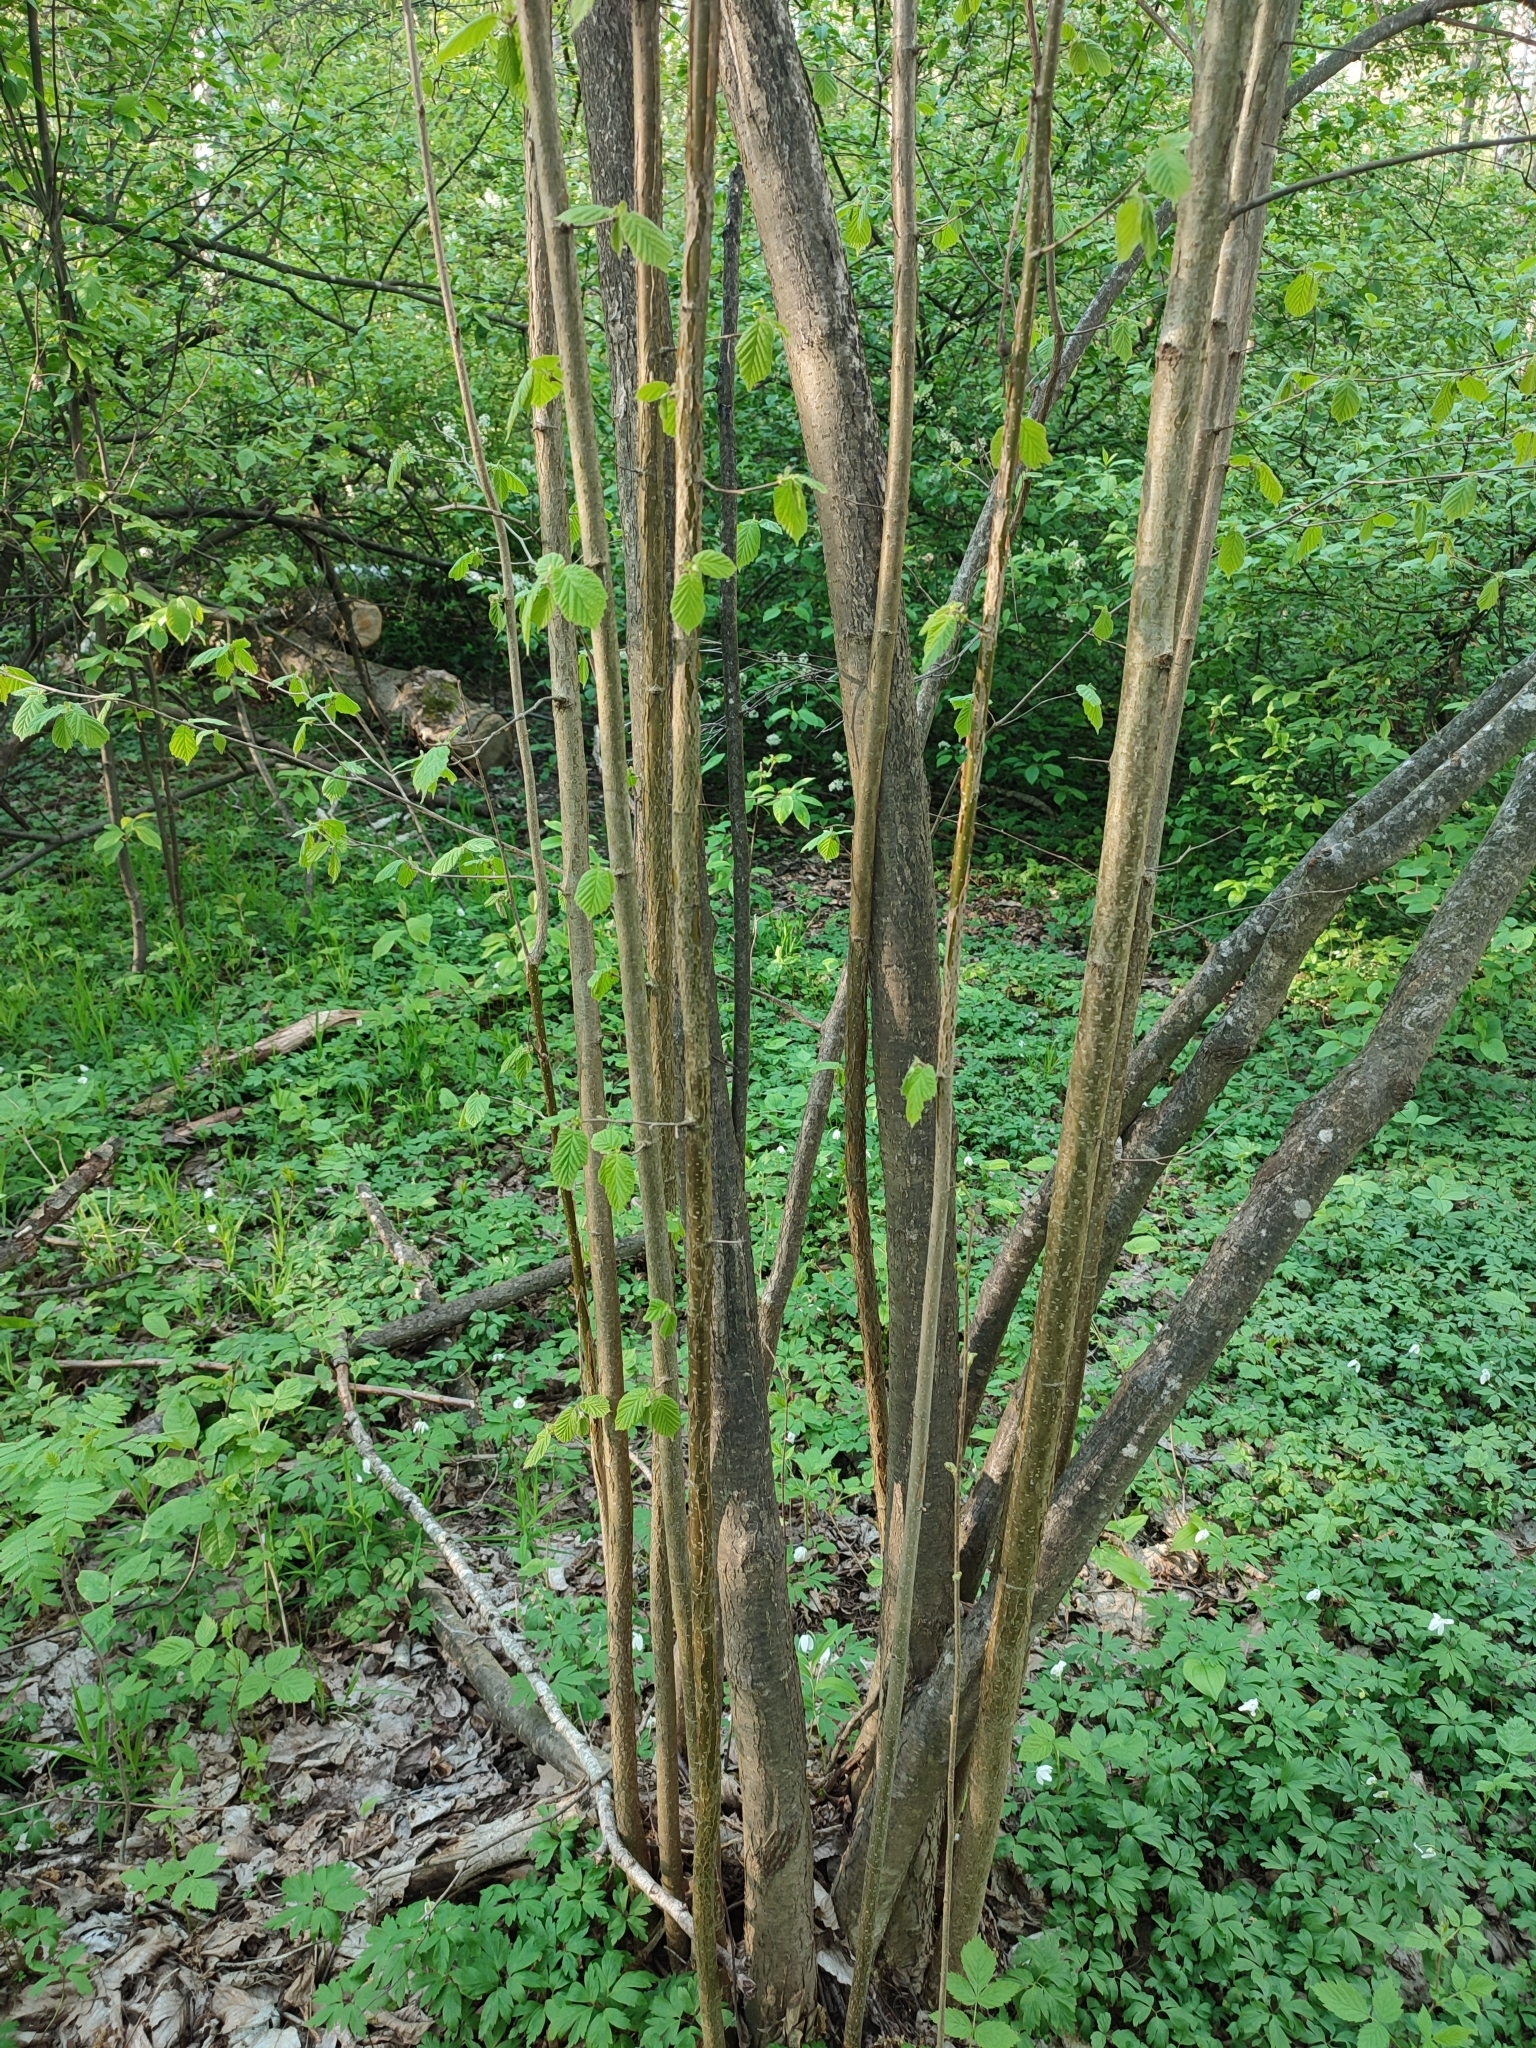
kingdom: Plantae
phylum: Tracheophyta
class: Magnoliopsida
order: Fagales
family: Betulaceae
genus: Corylus
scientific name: Corylus avellana
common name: European hazel
